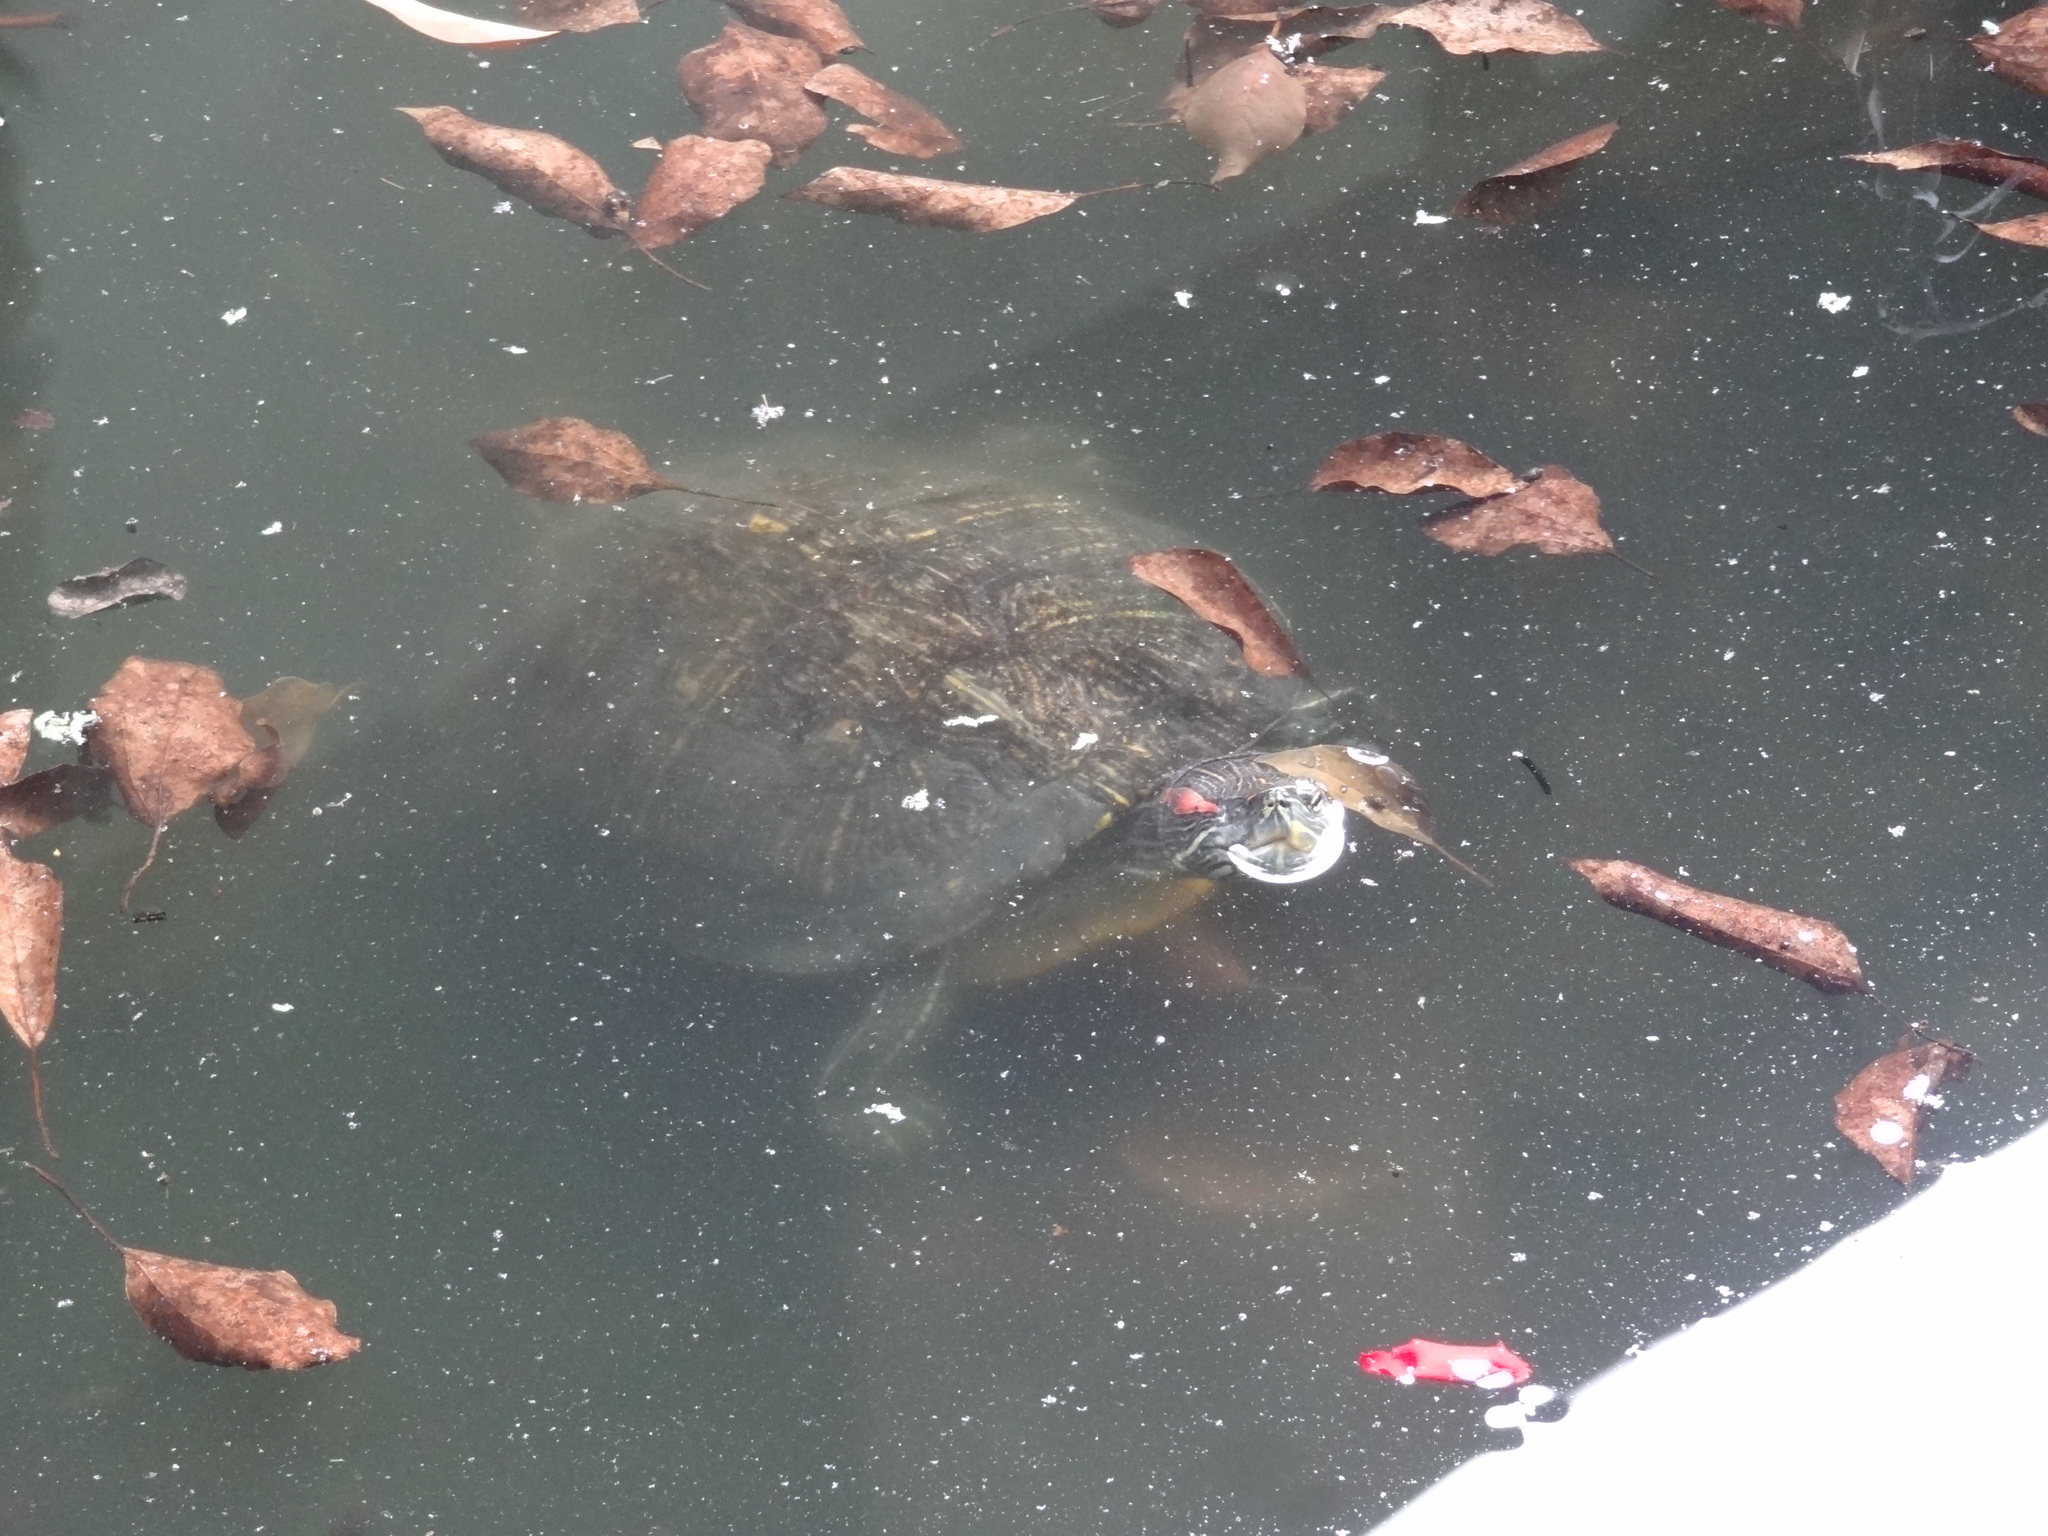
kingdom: Animalia
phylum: Chordata
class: Testudines
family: Emydidae
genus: Trachemys
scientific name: Trachemys scripta
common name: Slider
